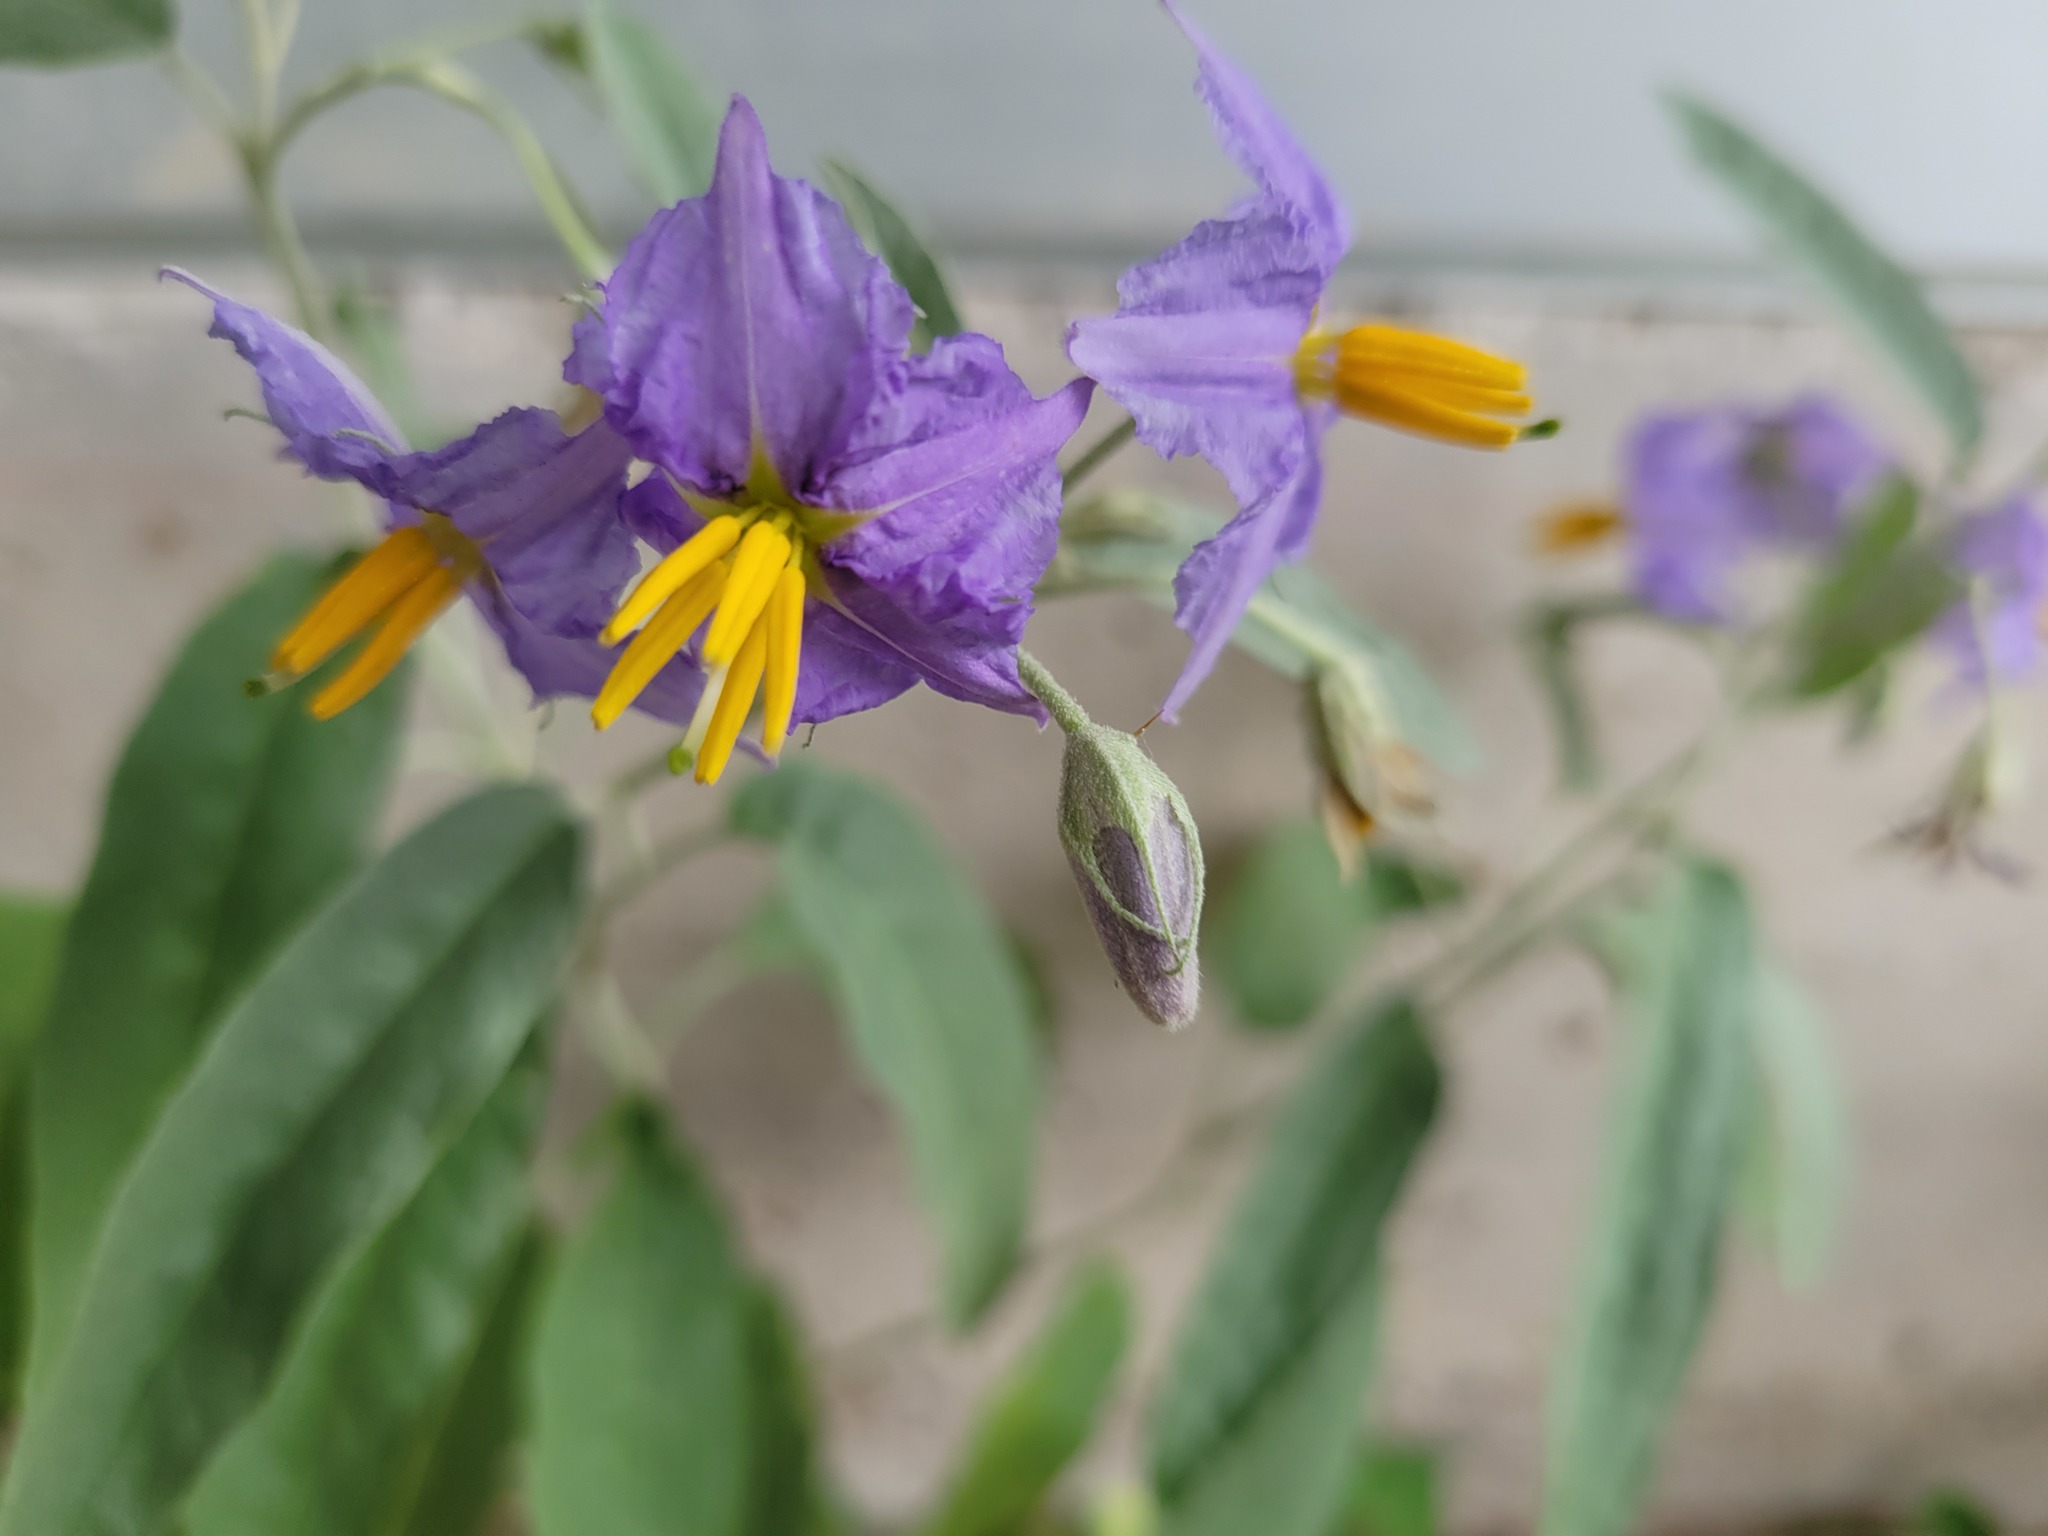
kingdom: Plantae
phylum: Tracheophyta
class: Magnoliopsida
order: Solanales
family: Solanaceae
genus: Solanum
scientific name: Solanum elaeagnifolium
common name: Silverleaf nightshade
